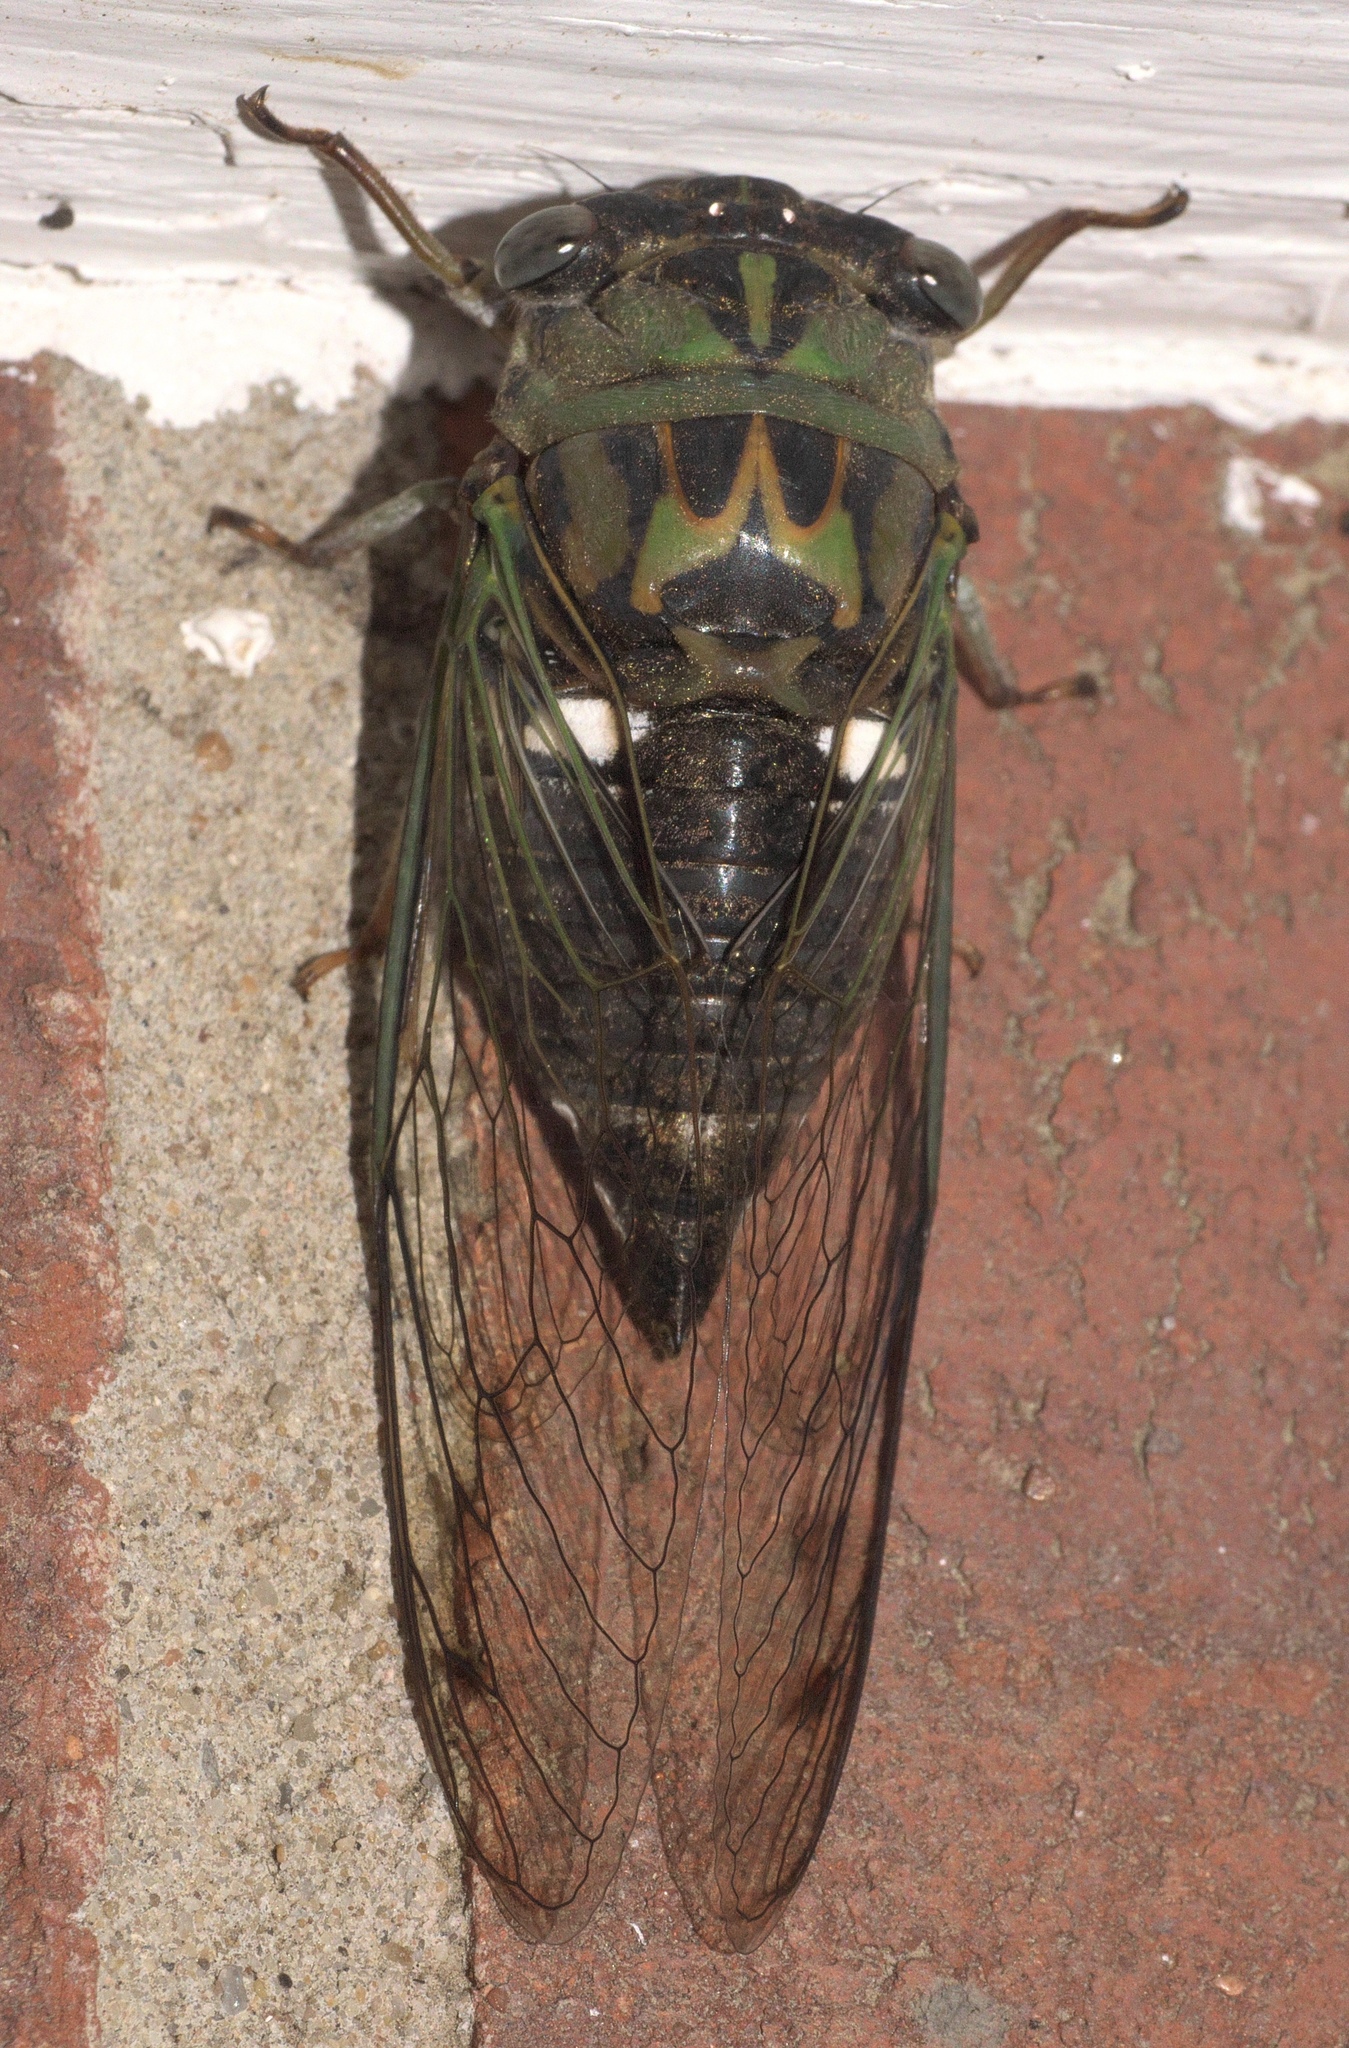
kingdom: Animalia
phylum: Arthropoda
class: Insecta
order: Hemiptera
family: Cicadidae
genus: Neotibicen
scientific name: Neotibicen pruinosus
